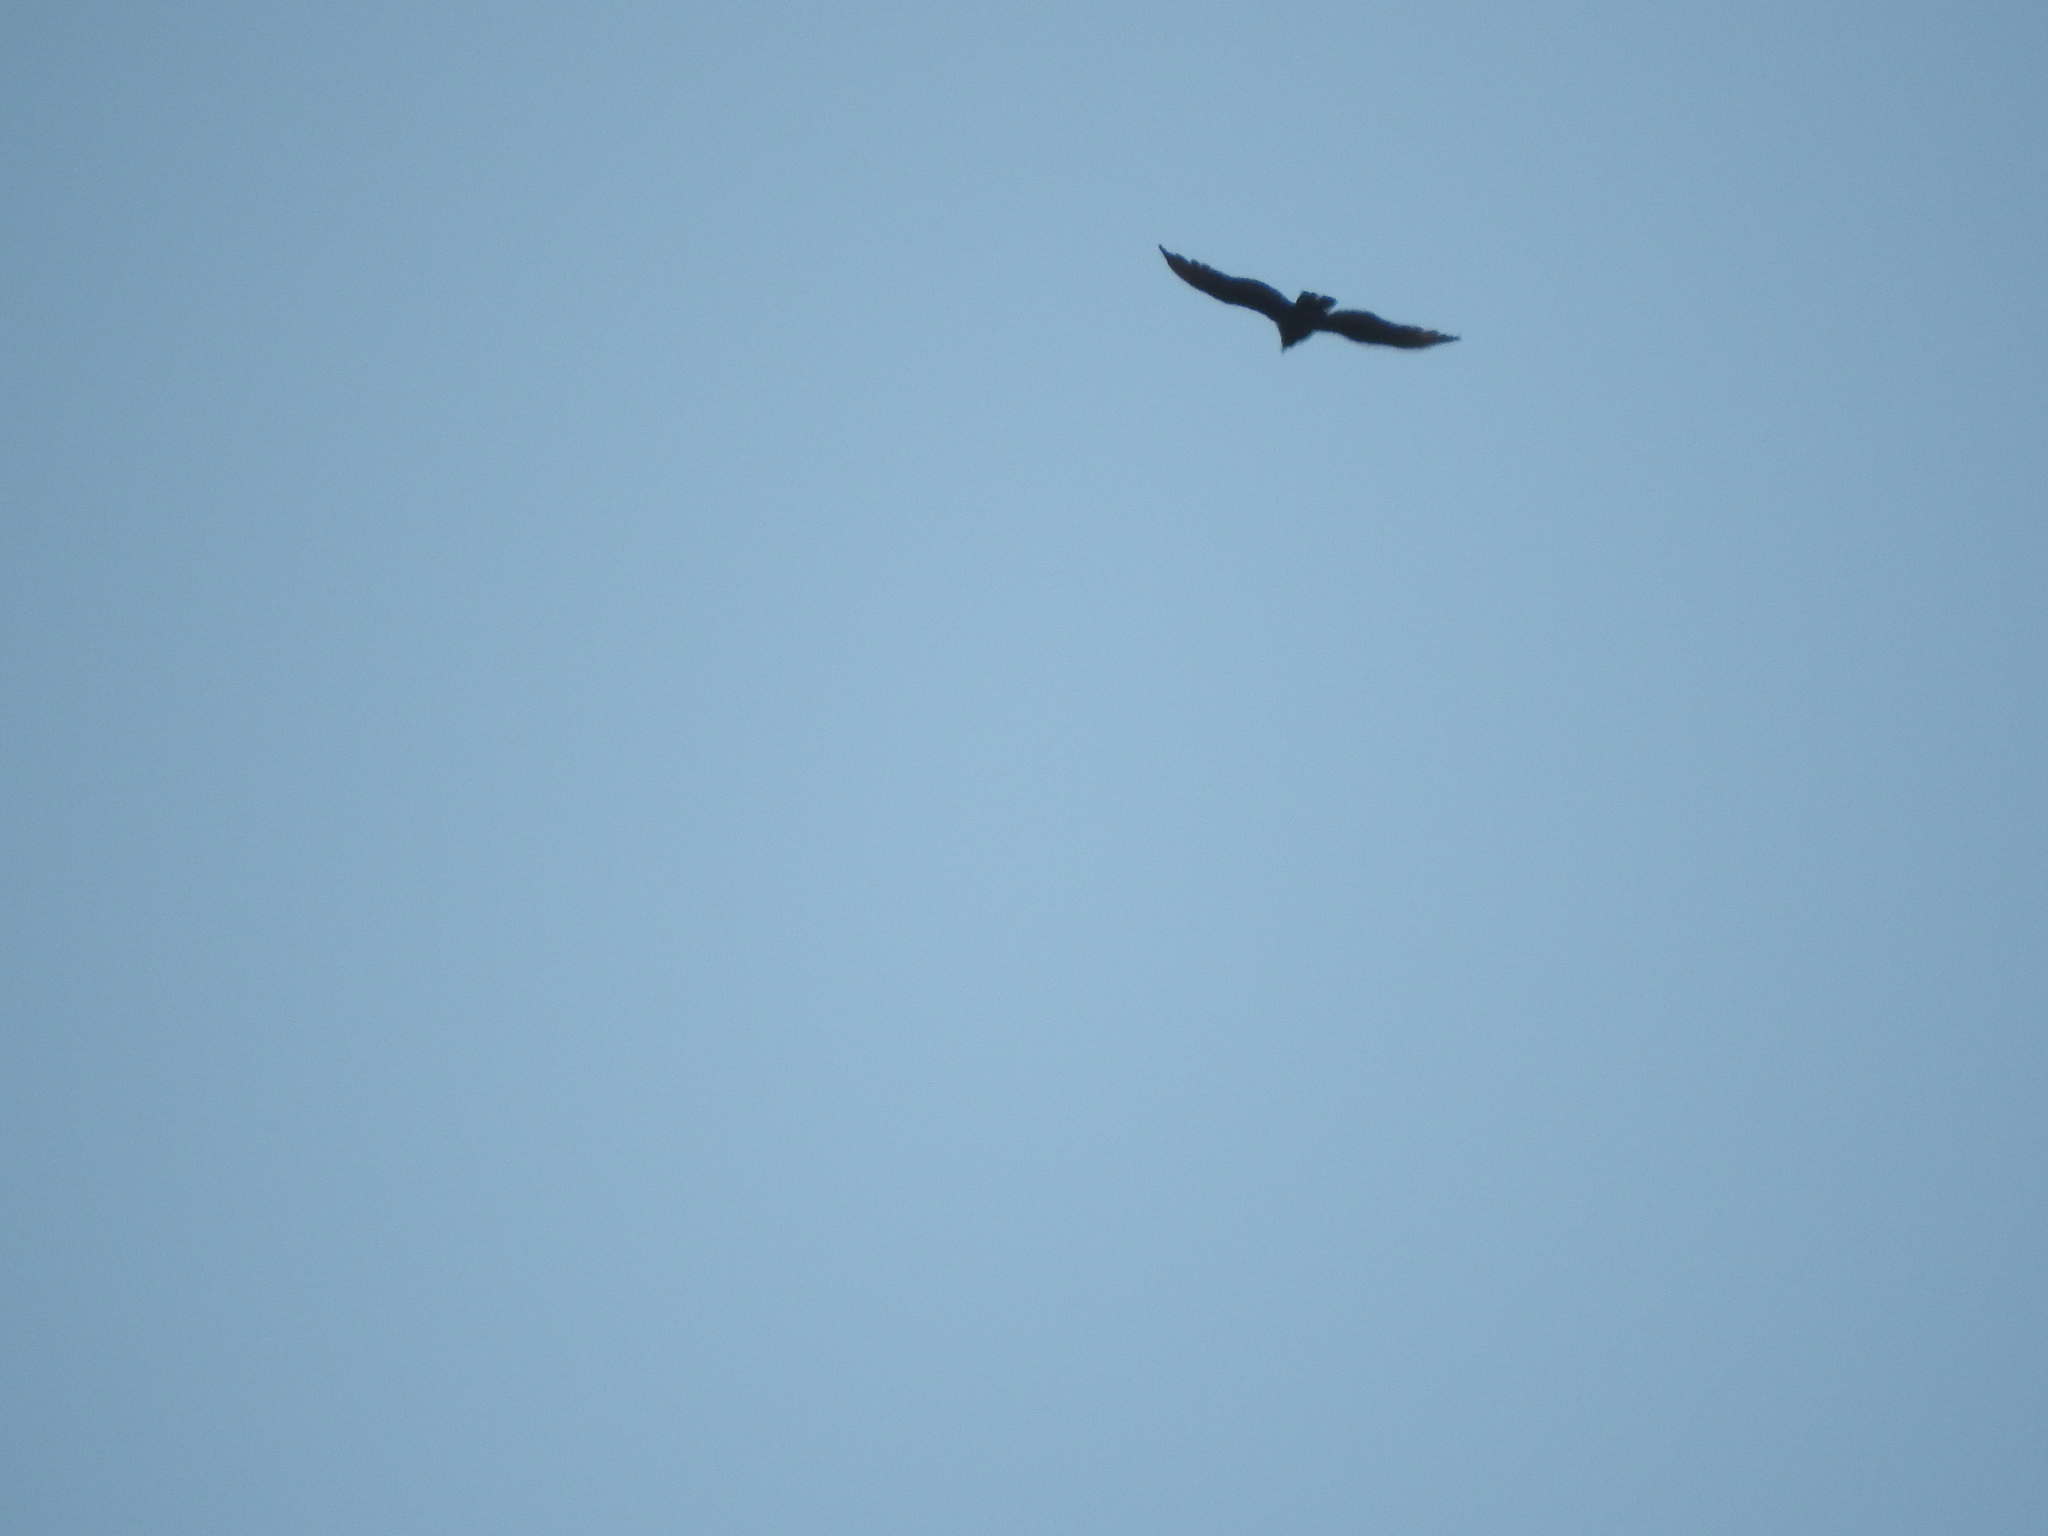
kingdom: Animalia
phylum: Chordata
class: Aves
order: Passeriformes
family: Corvidae
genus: Corvus
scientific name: Corvus corax
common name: Common raven
